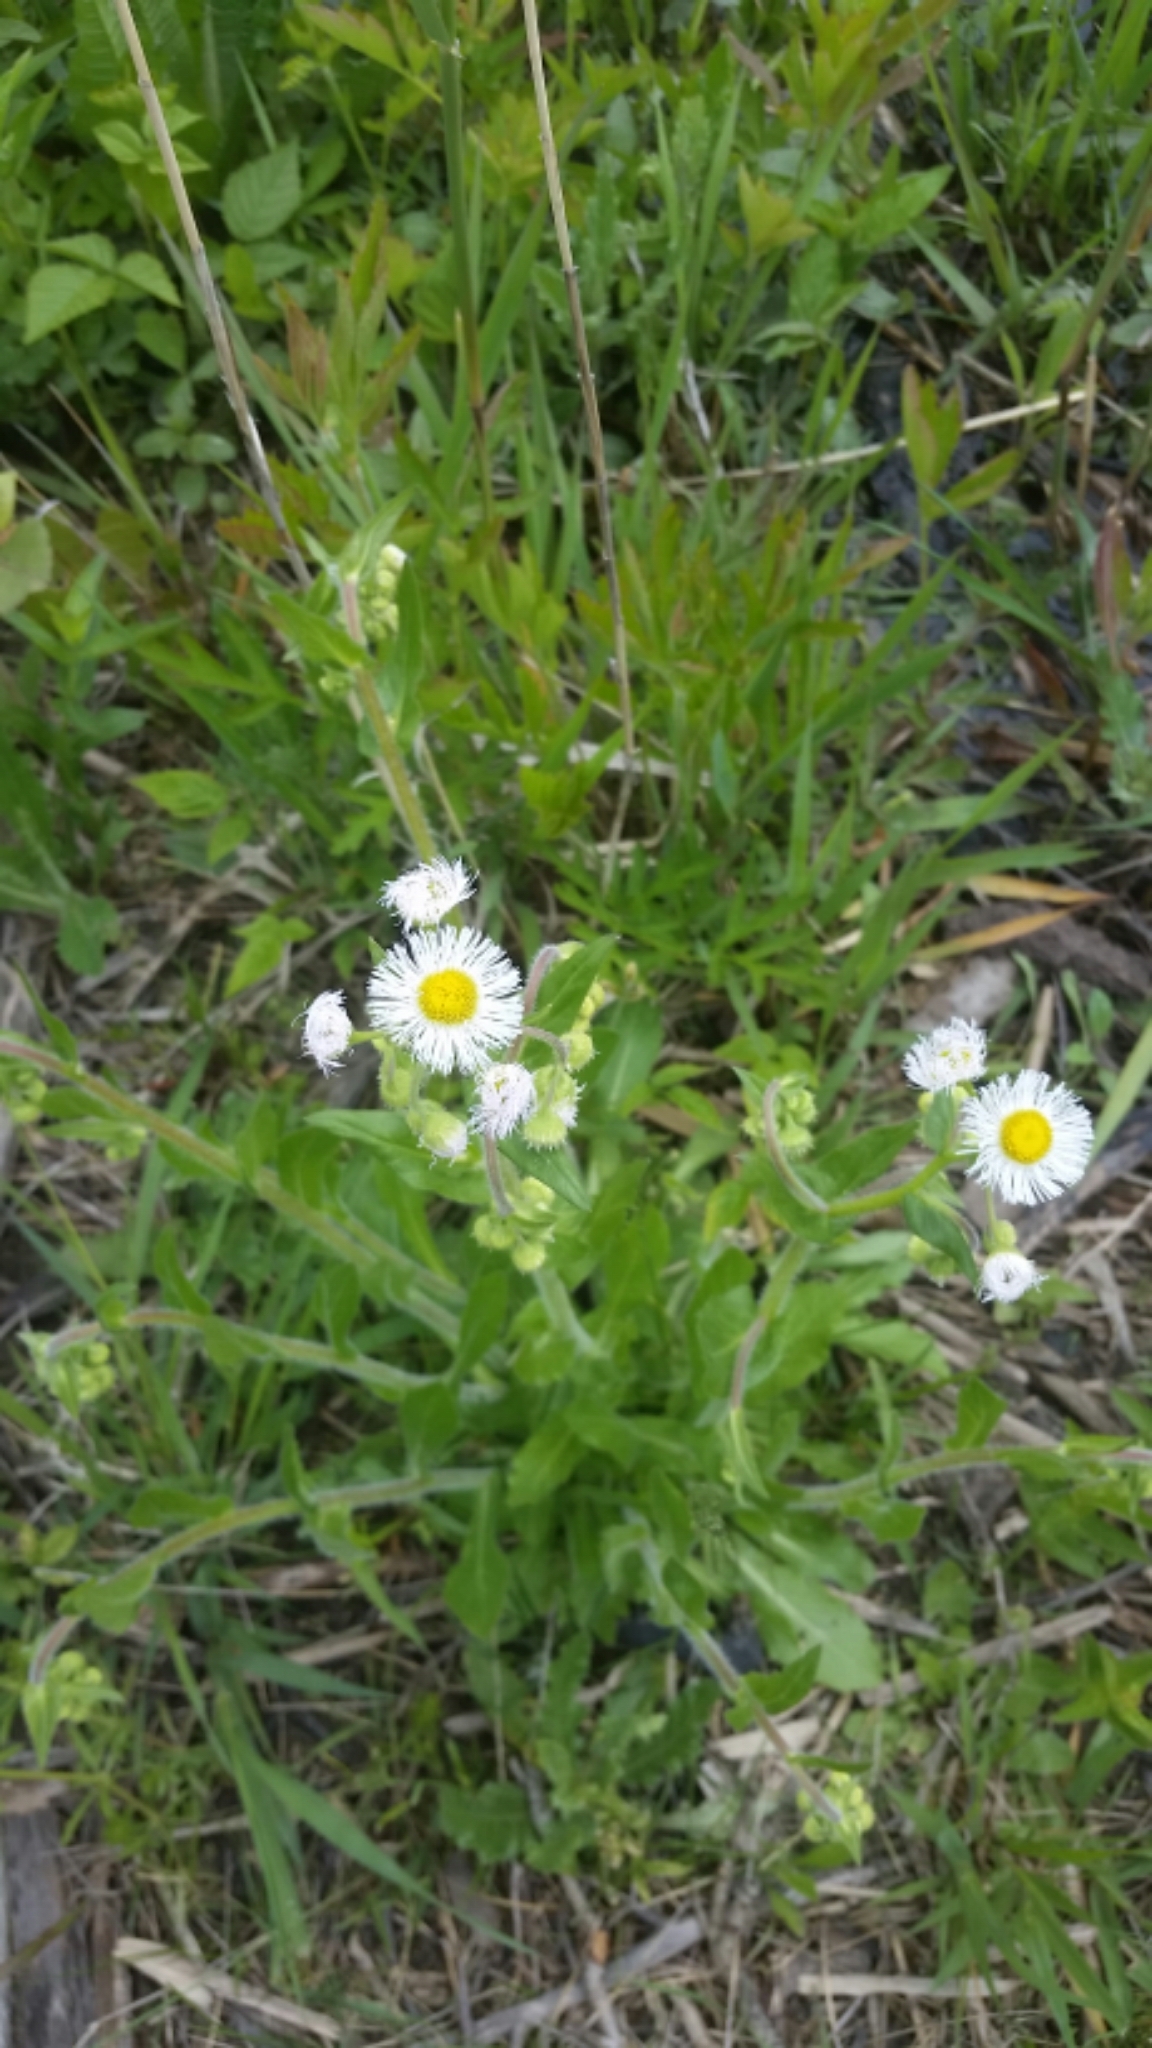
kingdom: Plantae
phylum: Tracheophyta
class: Magnoliopsida
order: Asterales
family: Asteraceae
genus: Erigeron
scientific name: Erigeron philadelphicus
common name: Robin's-plantain
